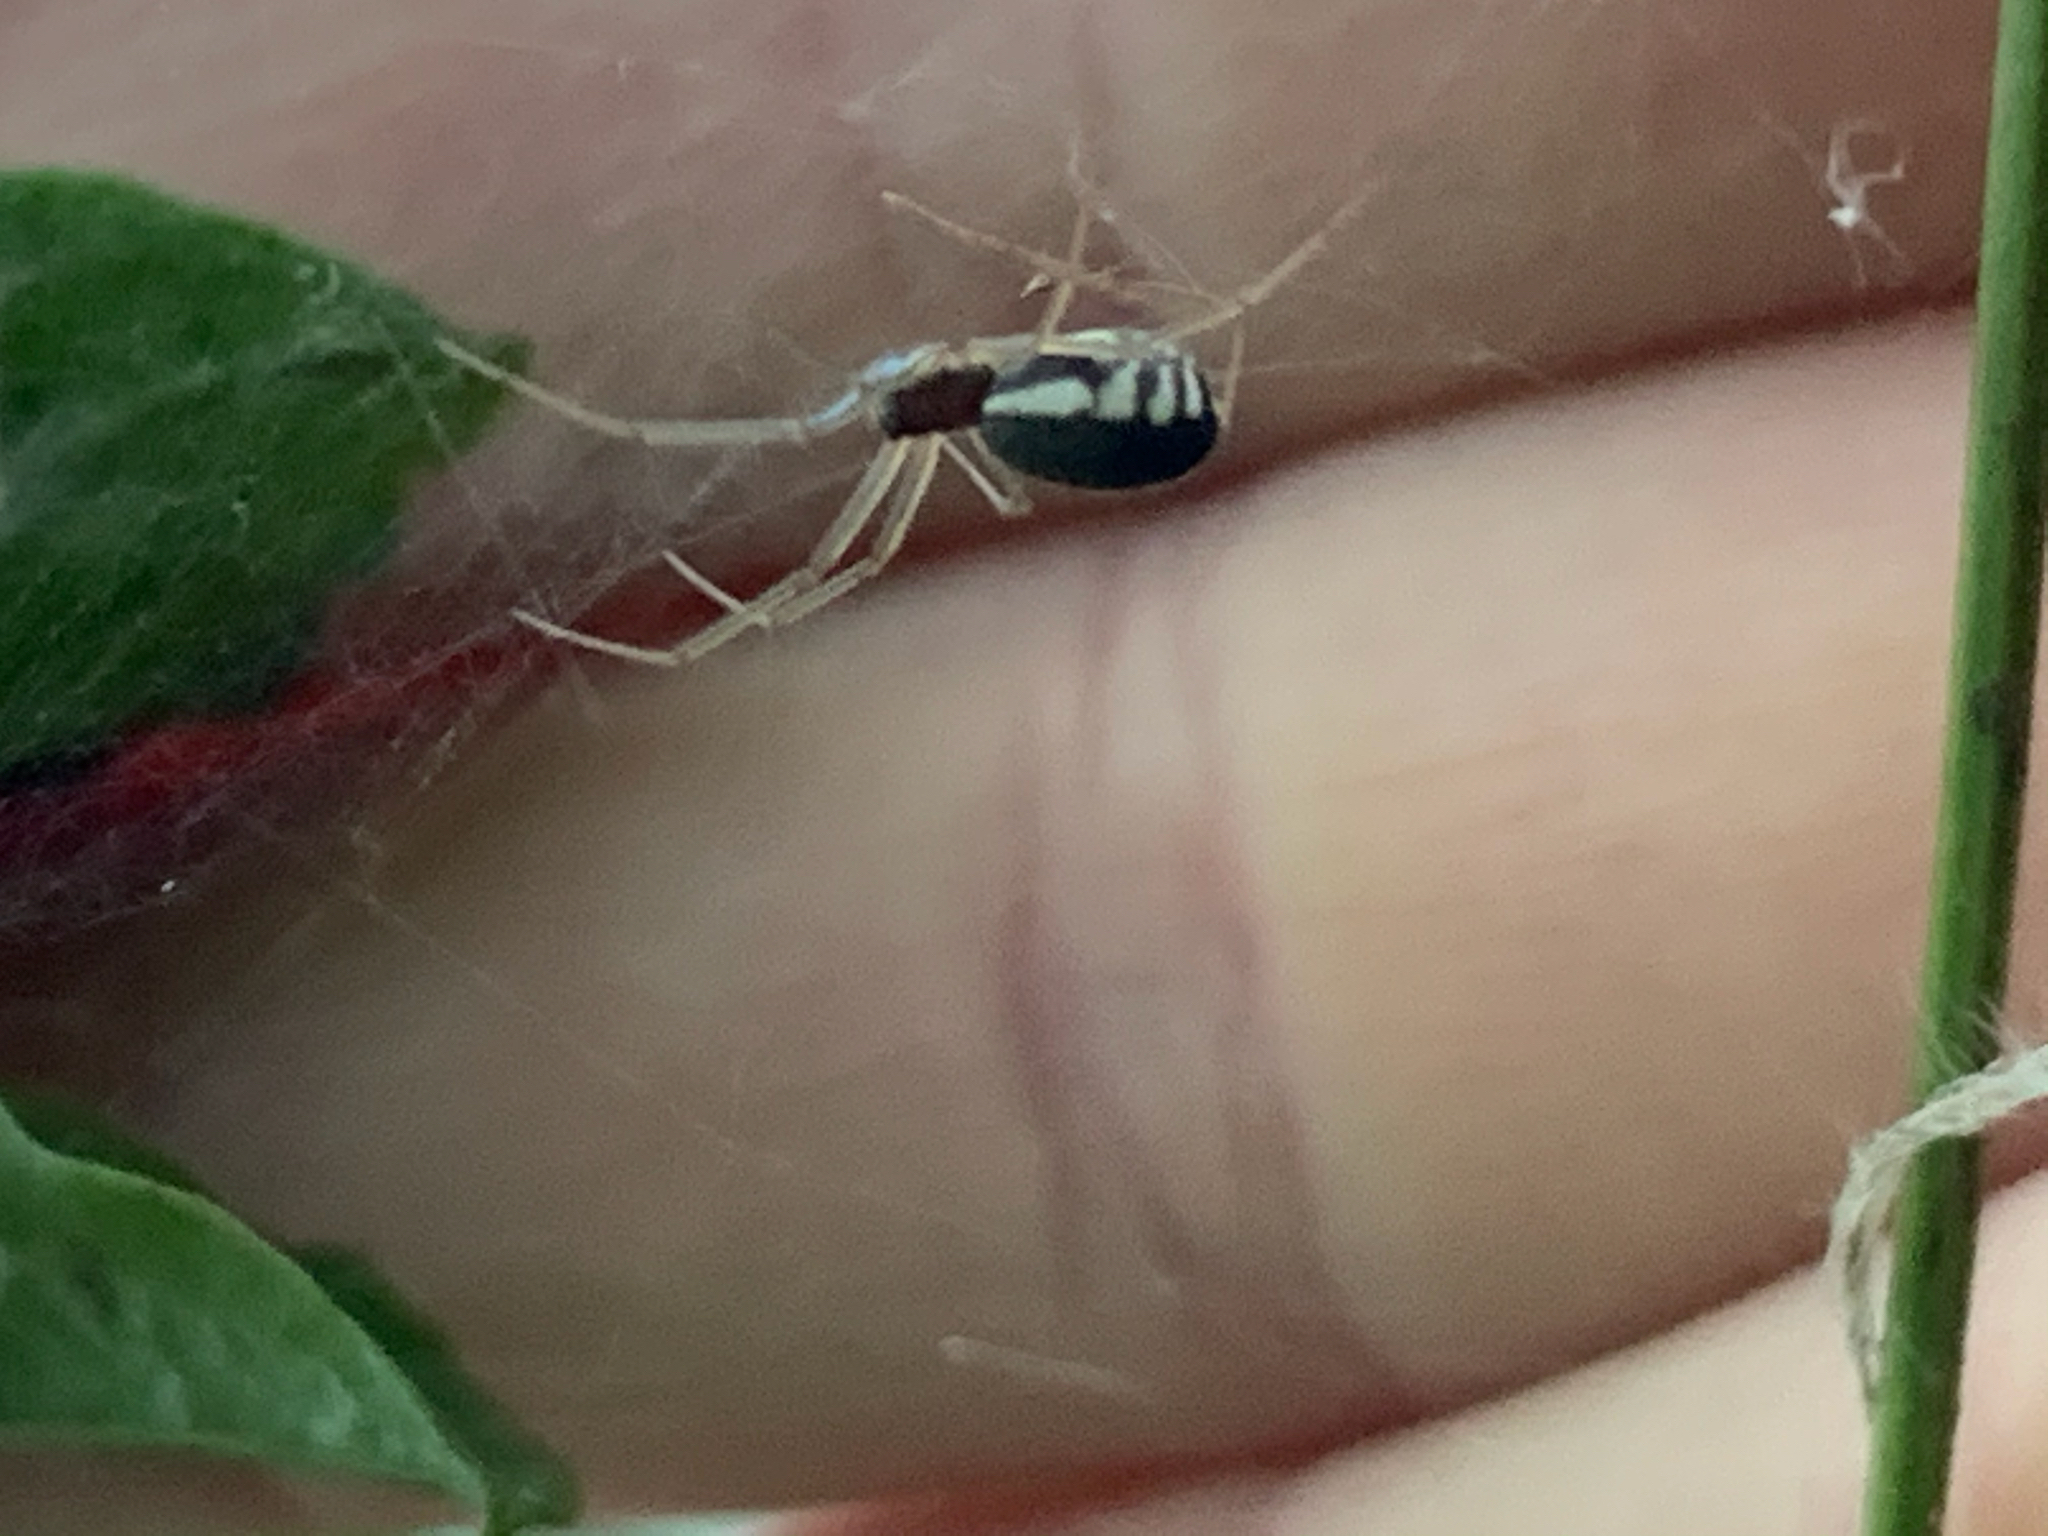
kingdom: Animalia
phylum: Arthropoda
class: Arachnida
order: Araneae
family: Linyphiidae
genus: Frontinella
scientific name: Frontinella pyramitela
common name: Bowl-and-doily spider
